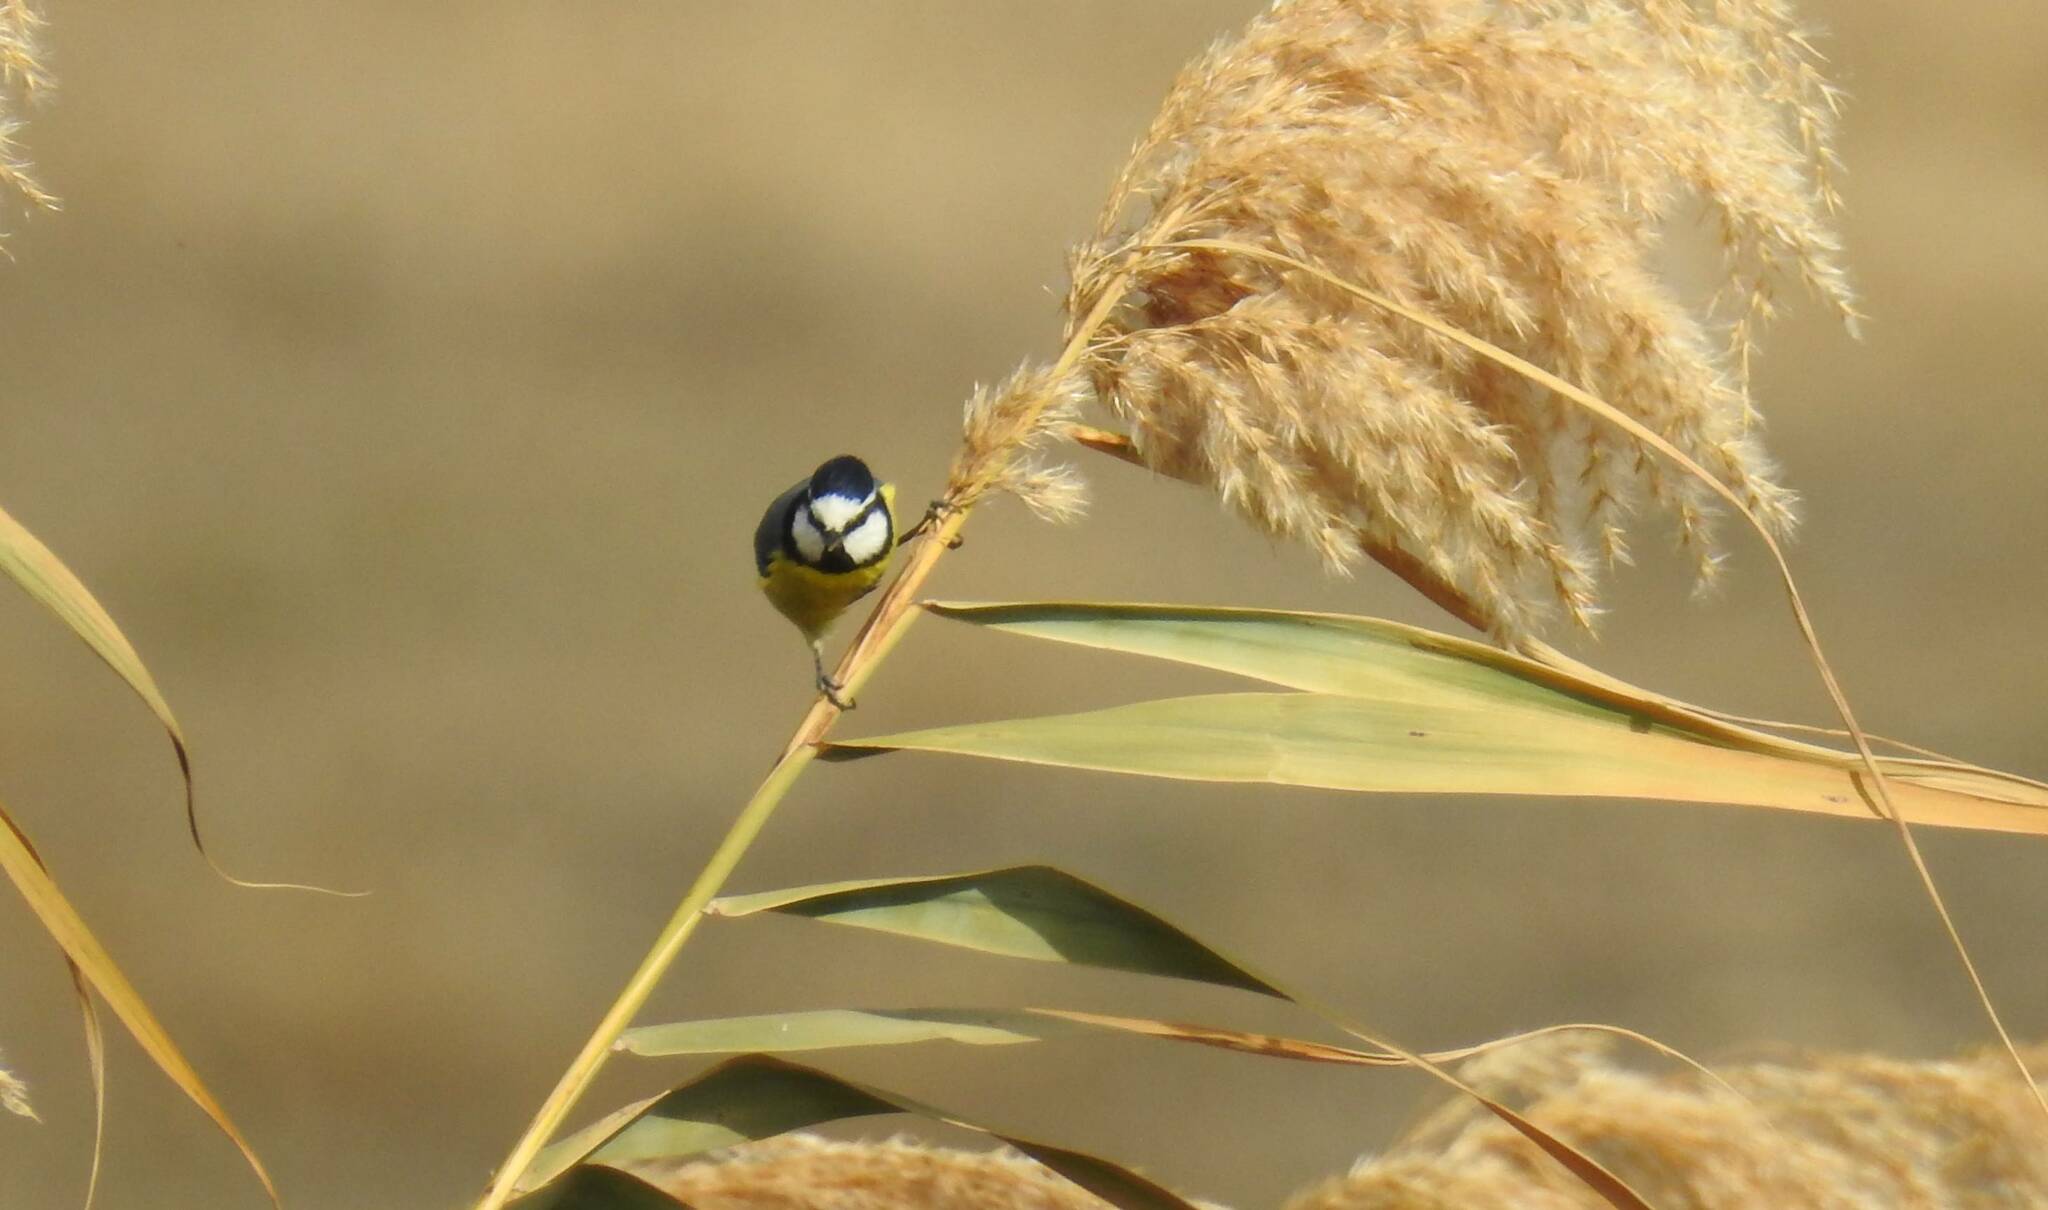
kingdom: Animalia
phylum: Chordata
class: Aves
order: Passeriformes
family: Paridae
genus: Cyanistes
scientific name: Cyanistes teneriffae
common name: African blue tit
